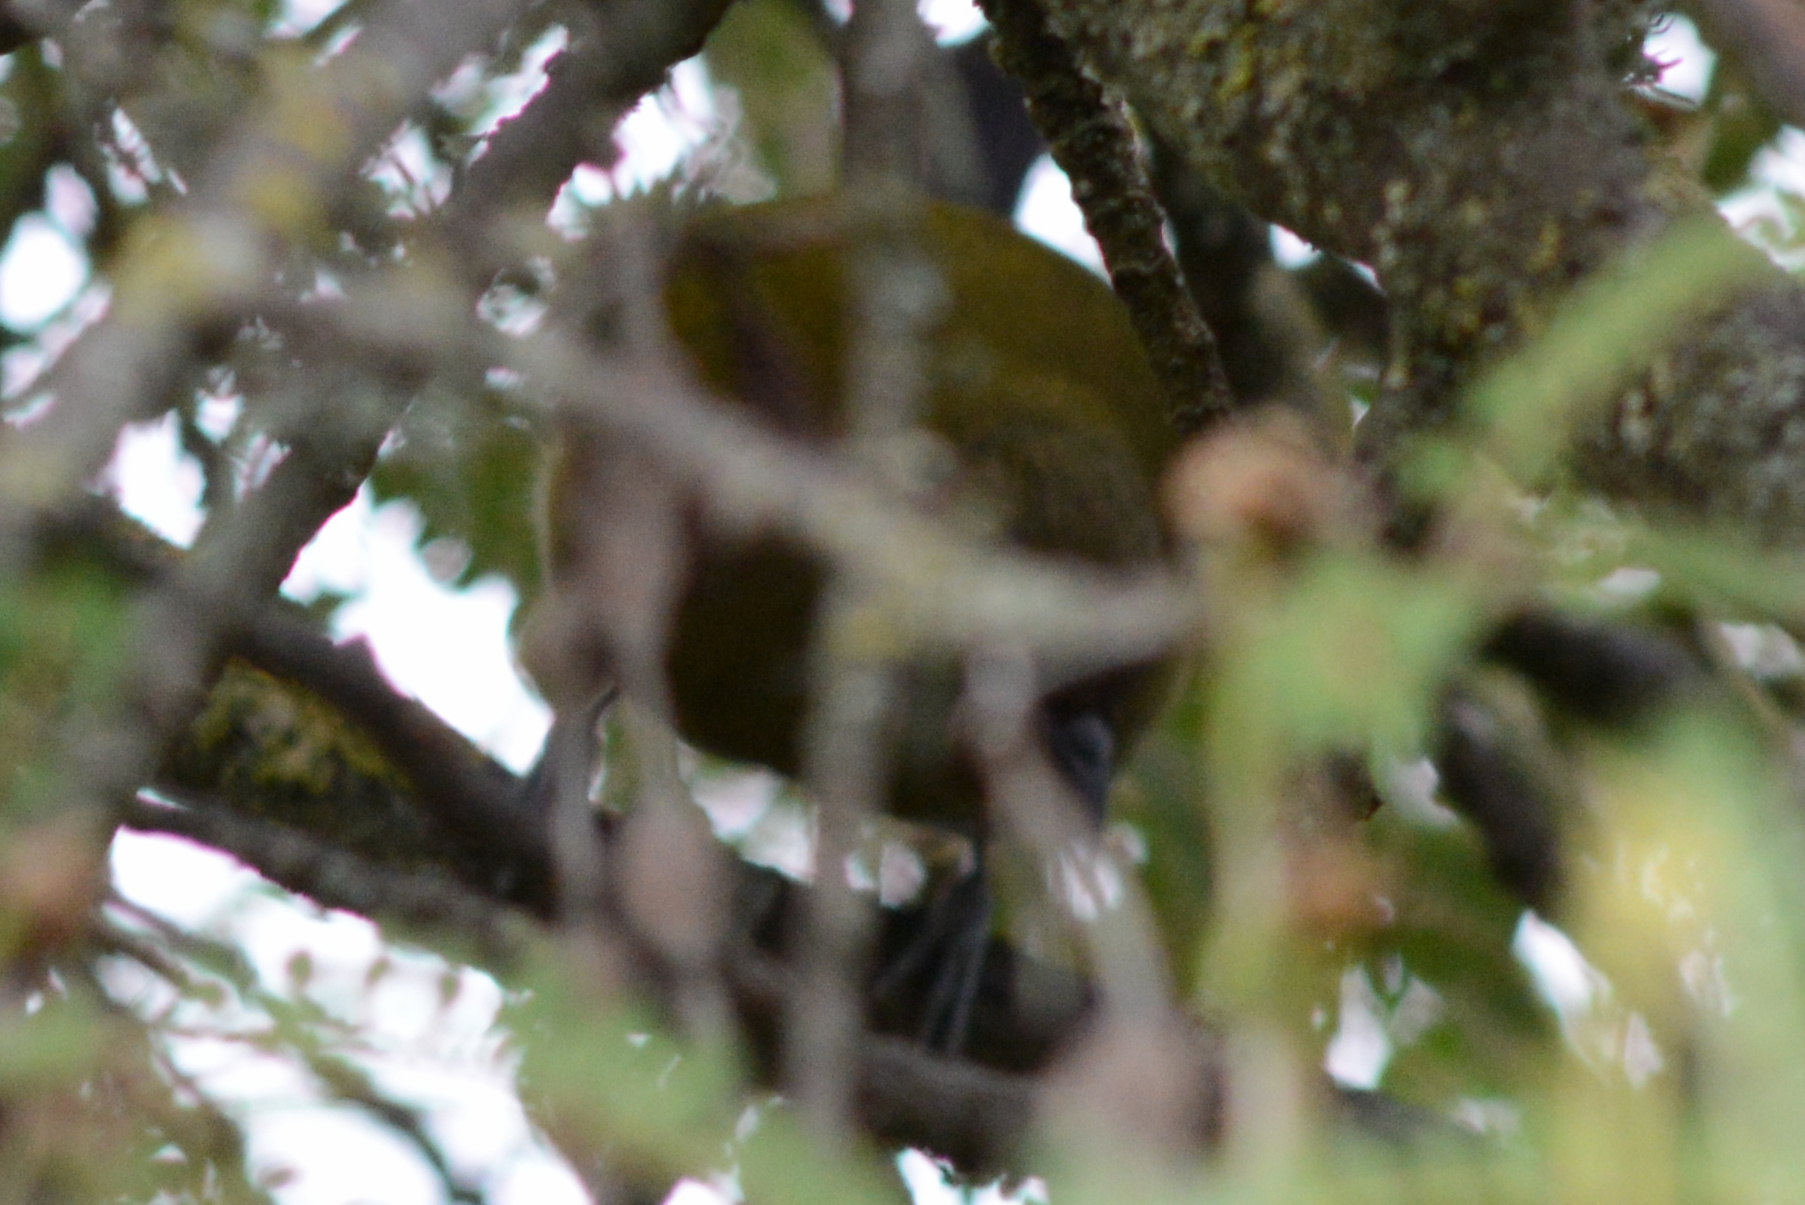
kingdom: Animalia
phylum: Chordata
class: Aves
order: Passeriformes
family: Meliphagidae
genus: Anthornis
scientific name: Anthornis melanura
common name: New zealand bellbird
